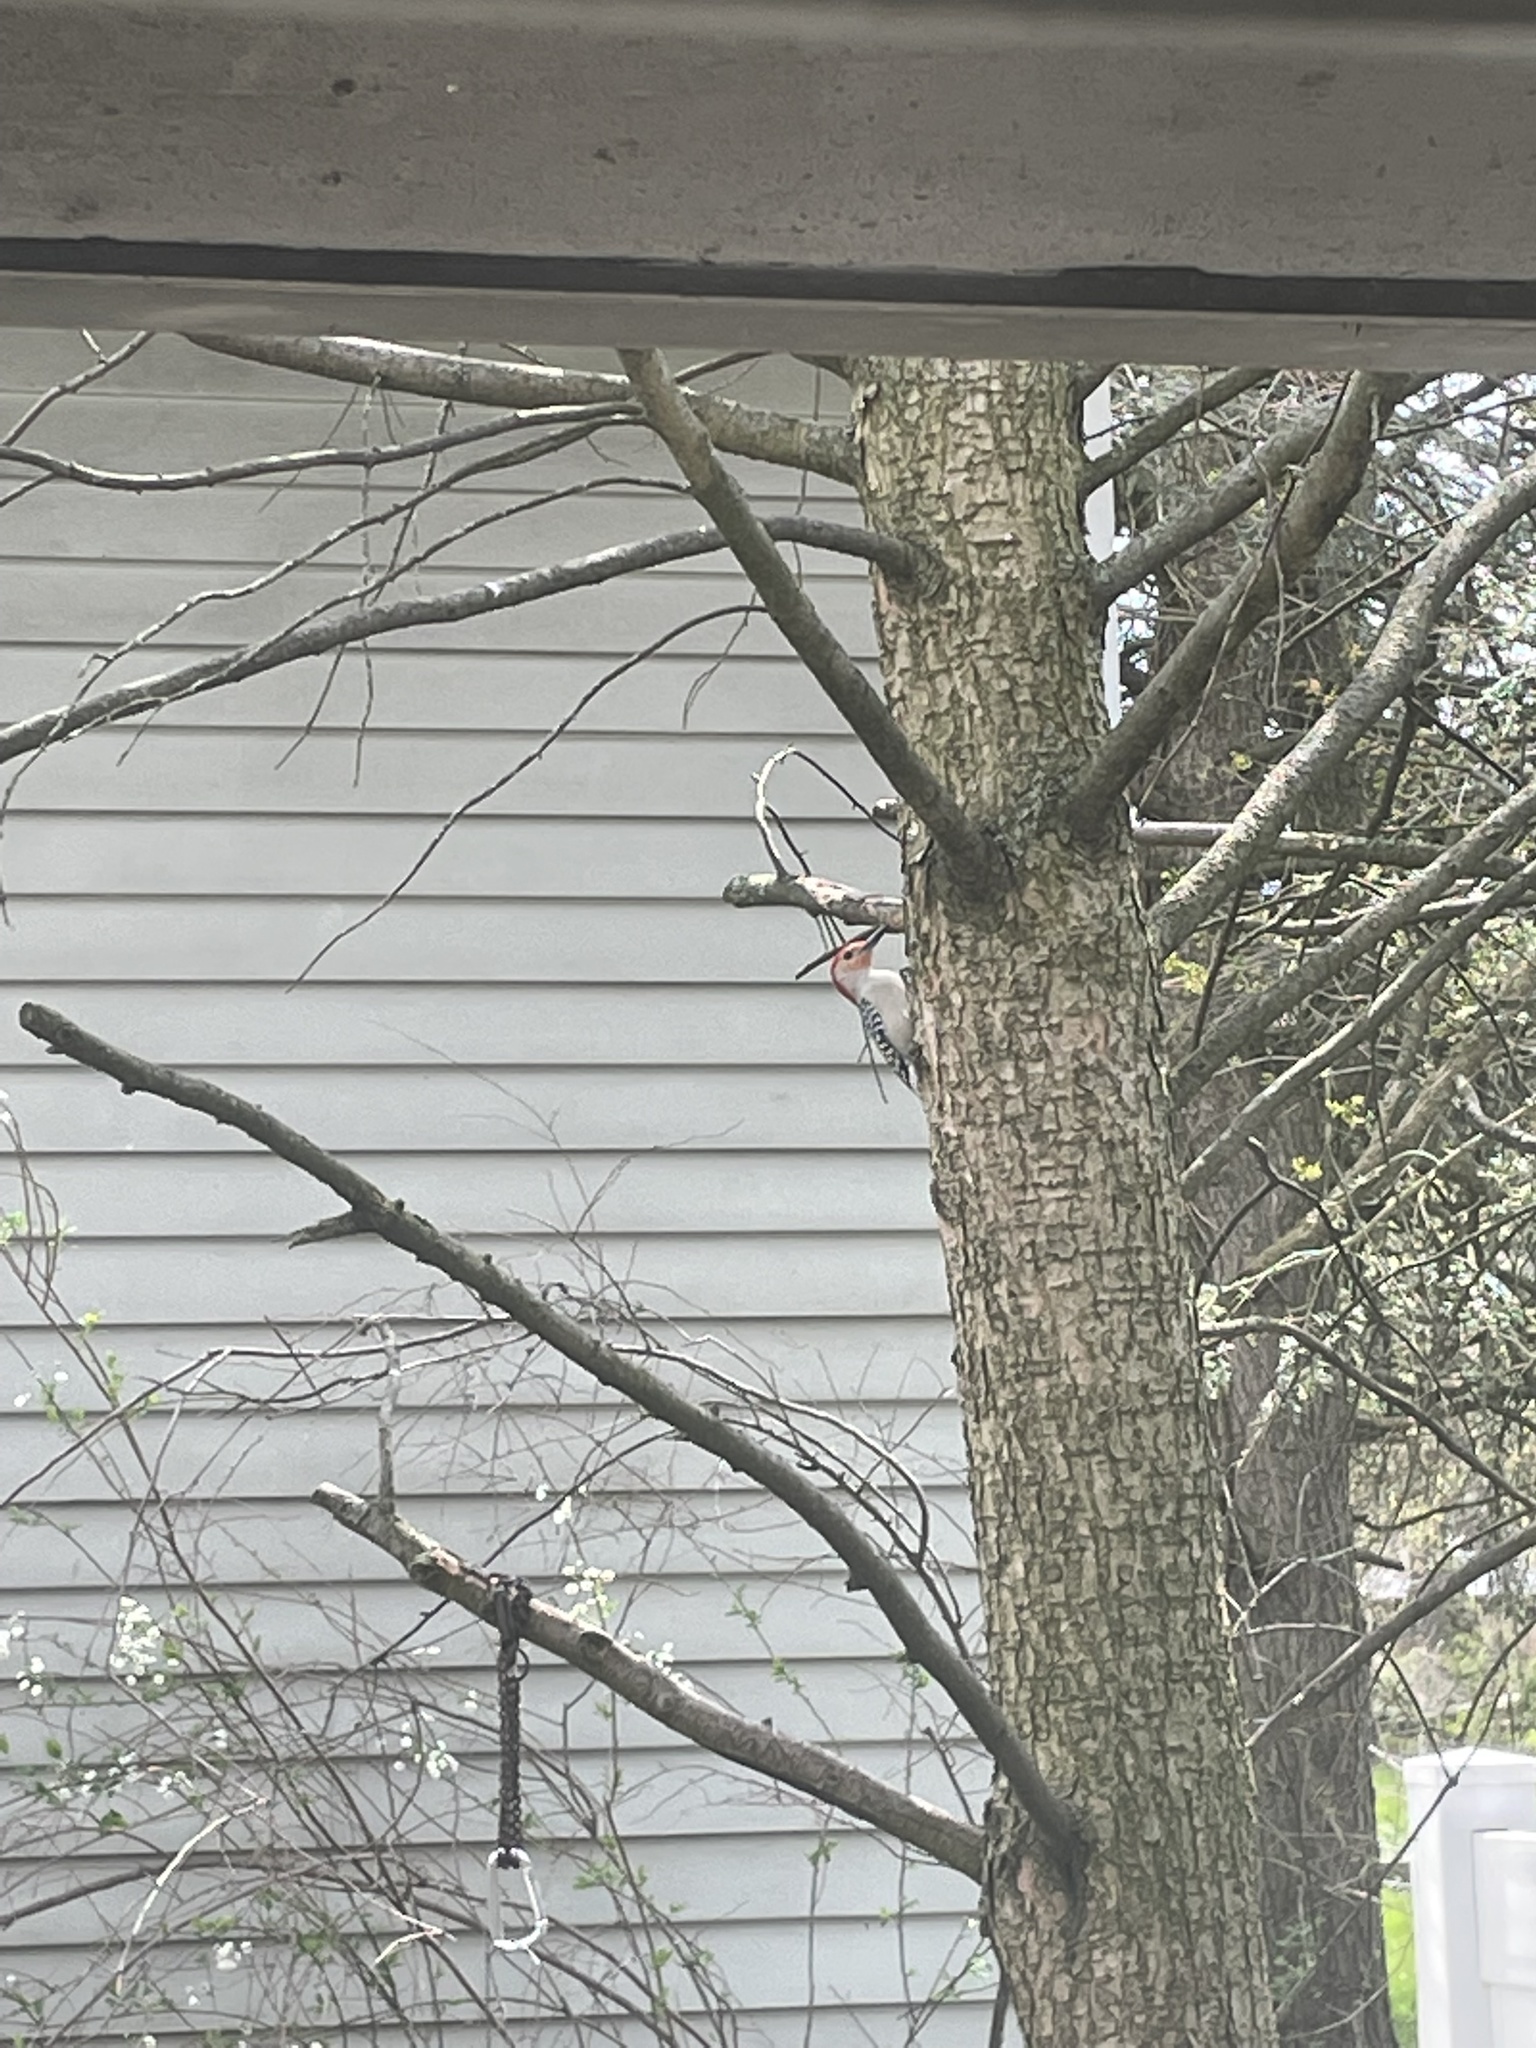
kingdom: Animalia
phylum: Chordata
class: Aves
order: Piciformes
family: Picidae
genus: Melanerpes
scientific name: Melanerpes carolinus
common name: Red-bellied woodpecker
